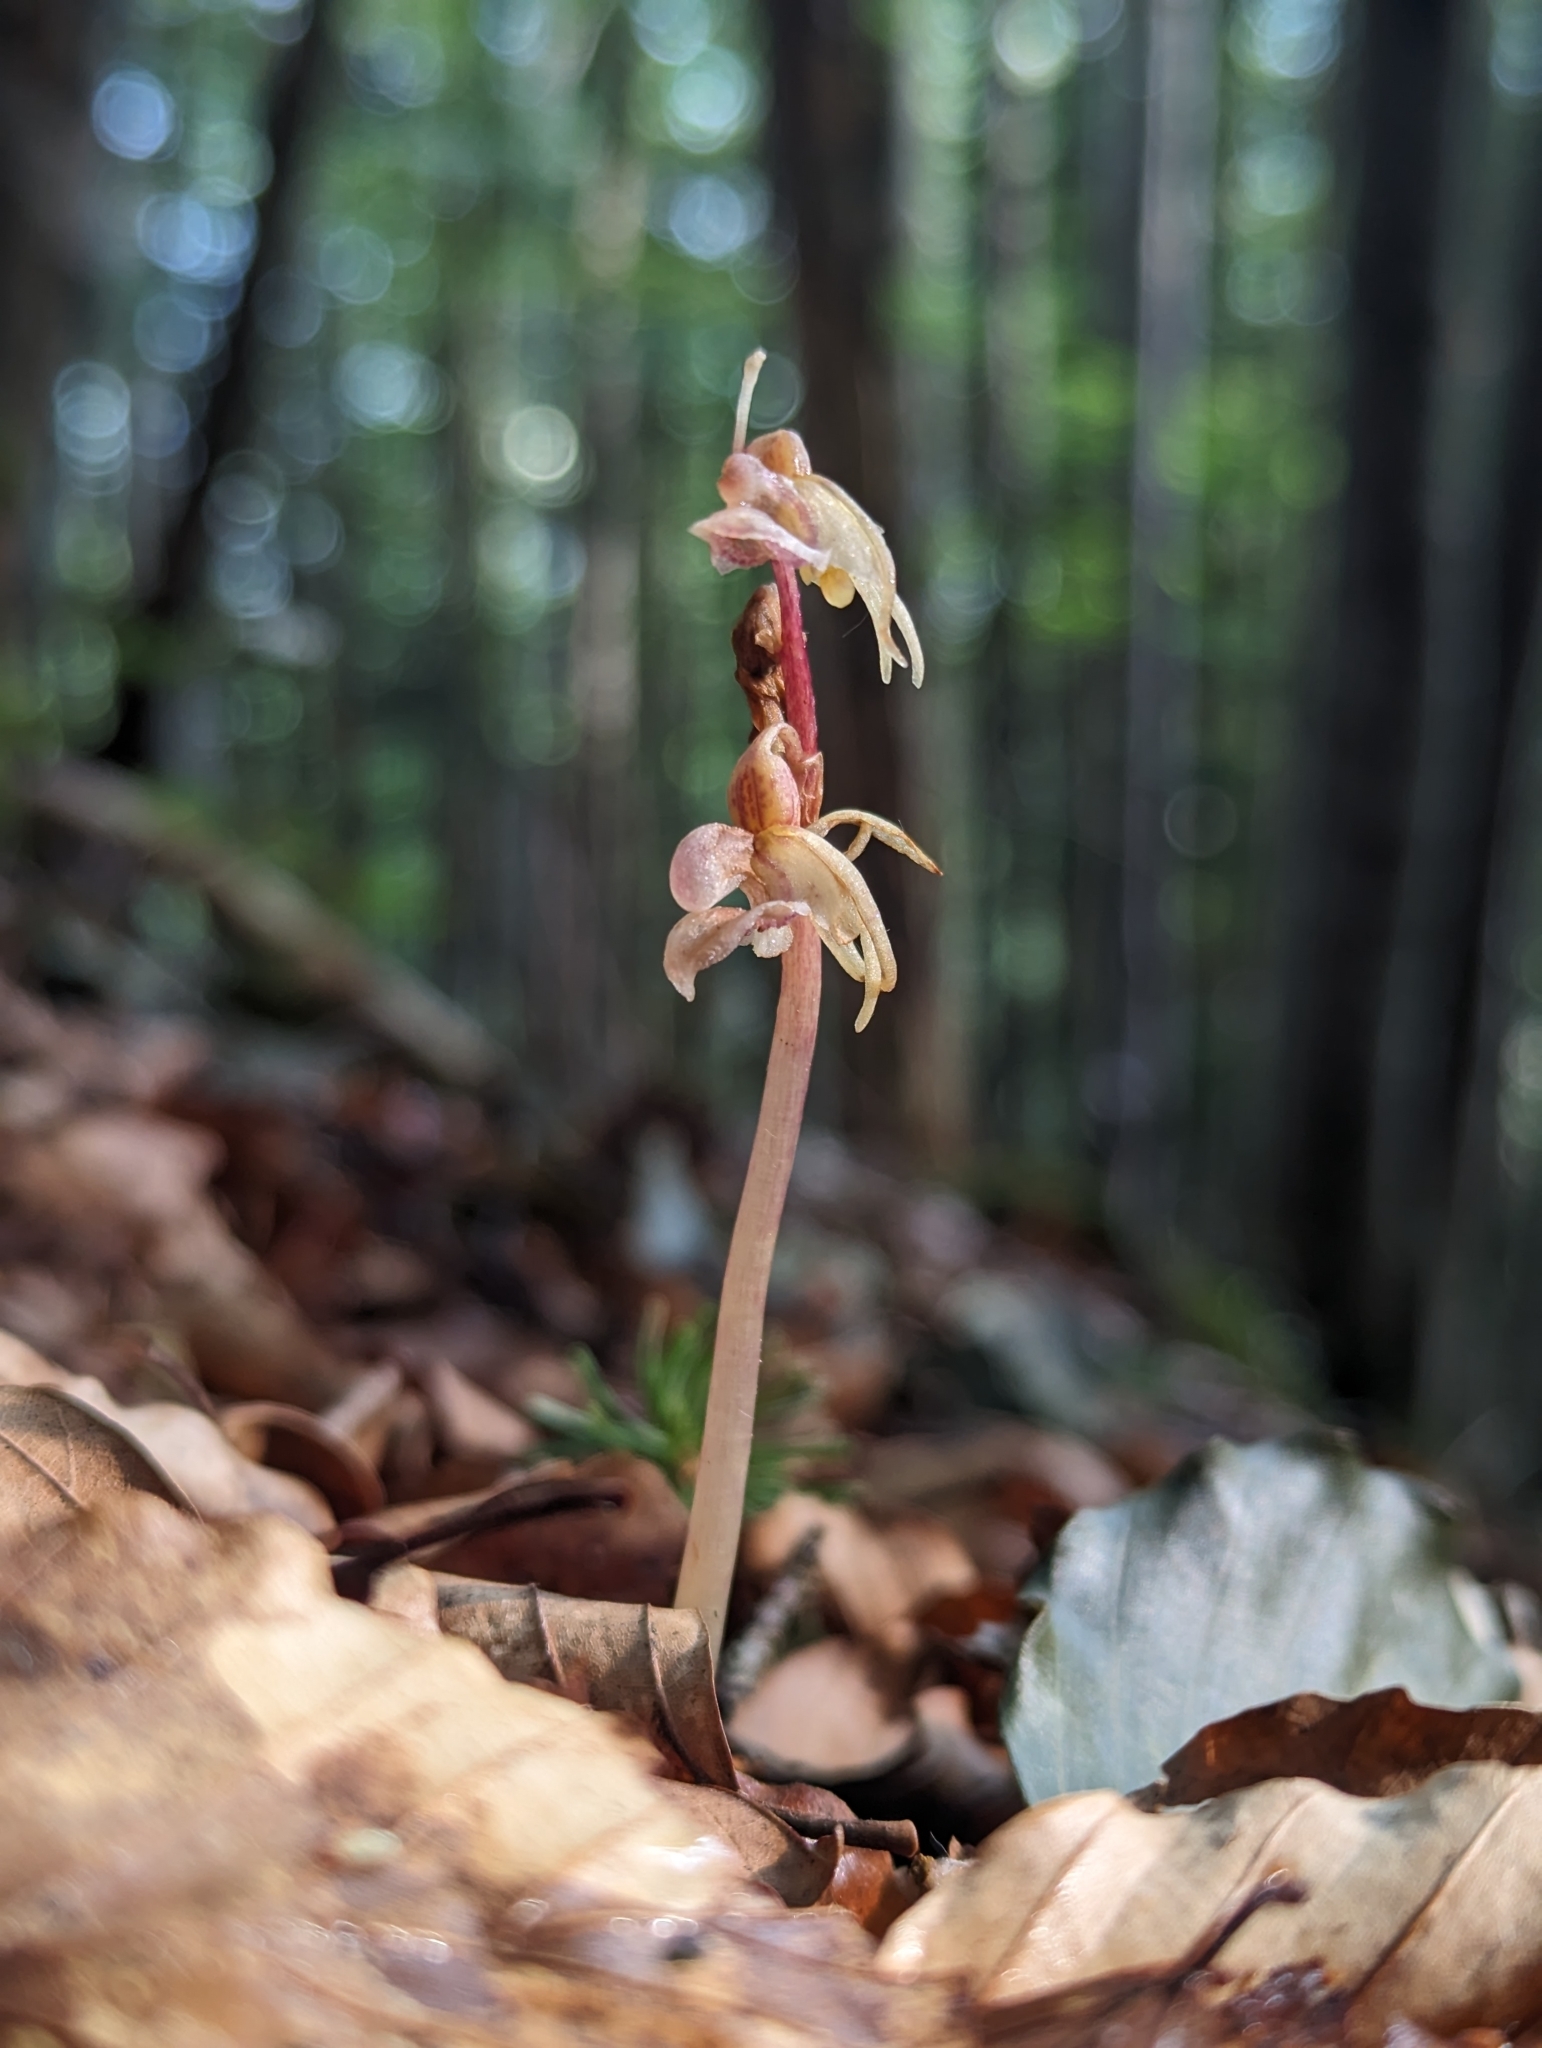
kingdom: Plantae
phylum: Tracheophyta
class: Liliopsida
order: Asparagales
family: Orchidaceae
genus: Epipogium
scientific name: Epipogium aphyllum
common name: Ghost orchid
